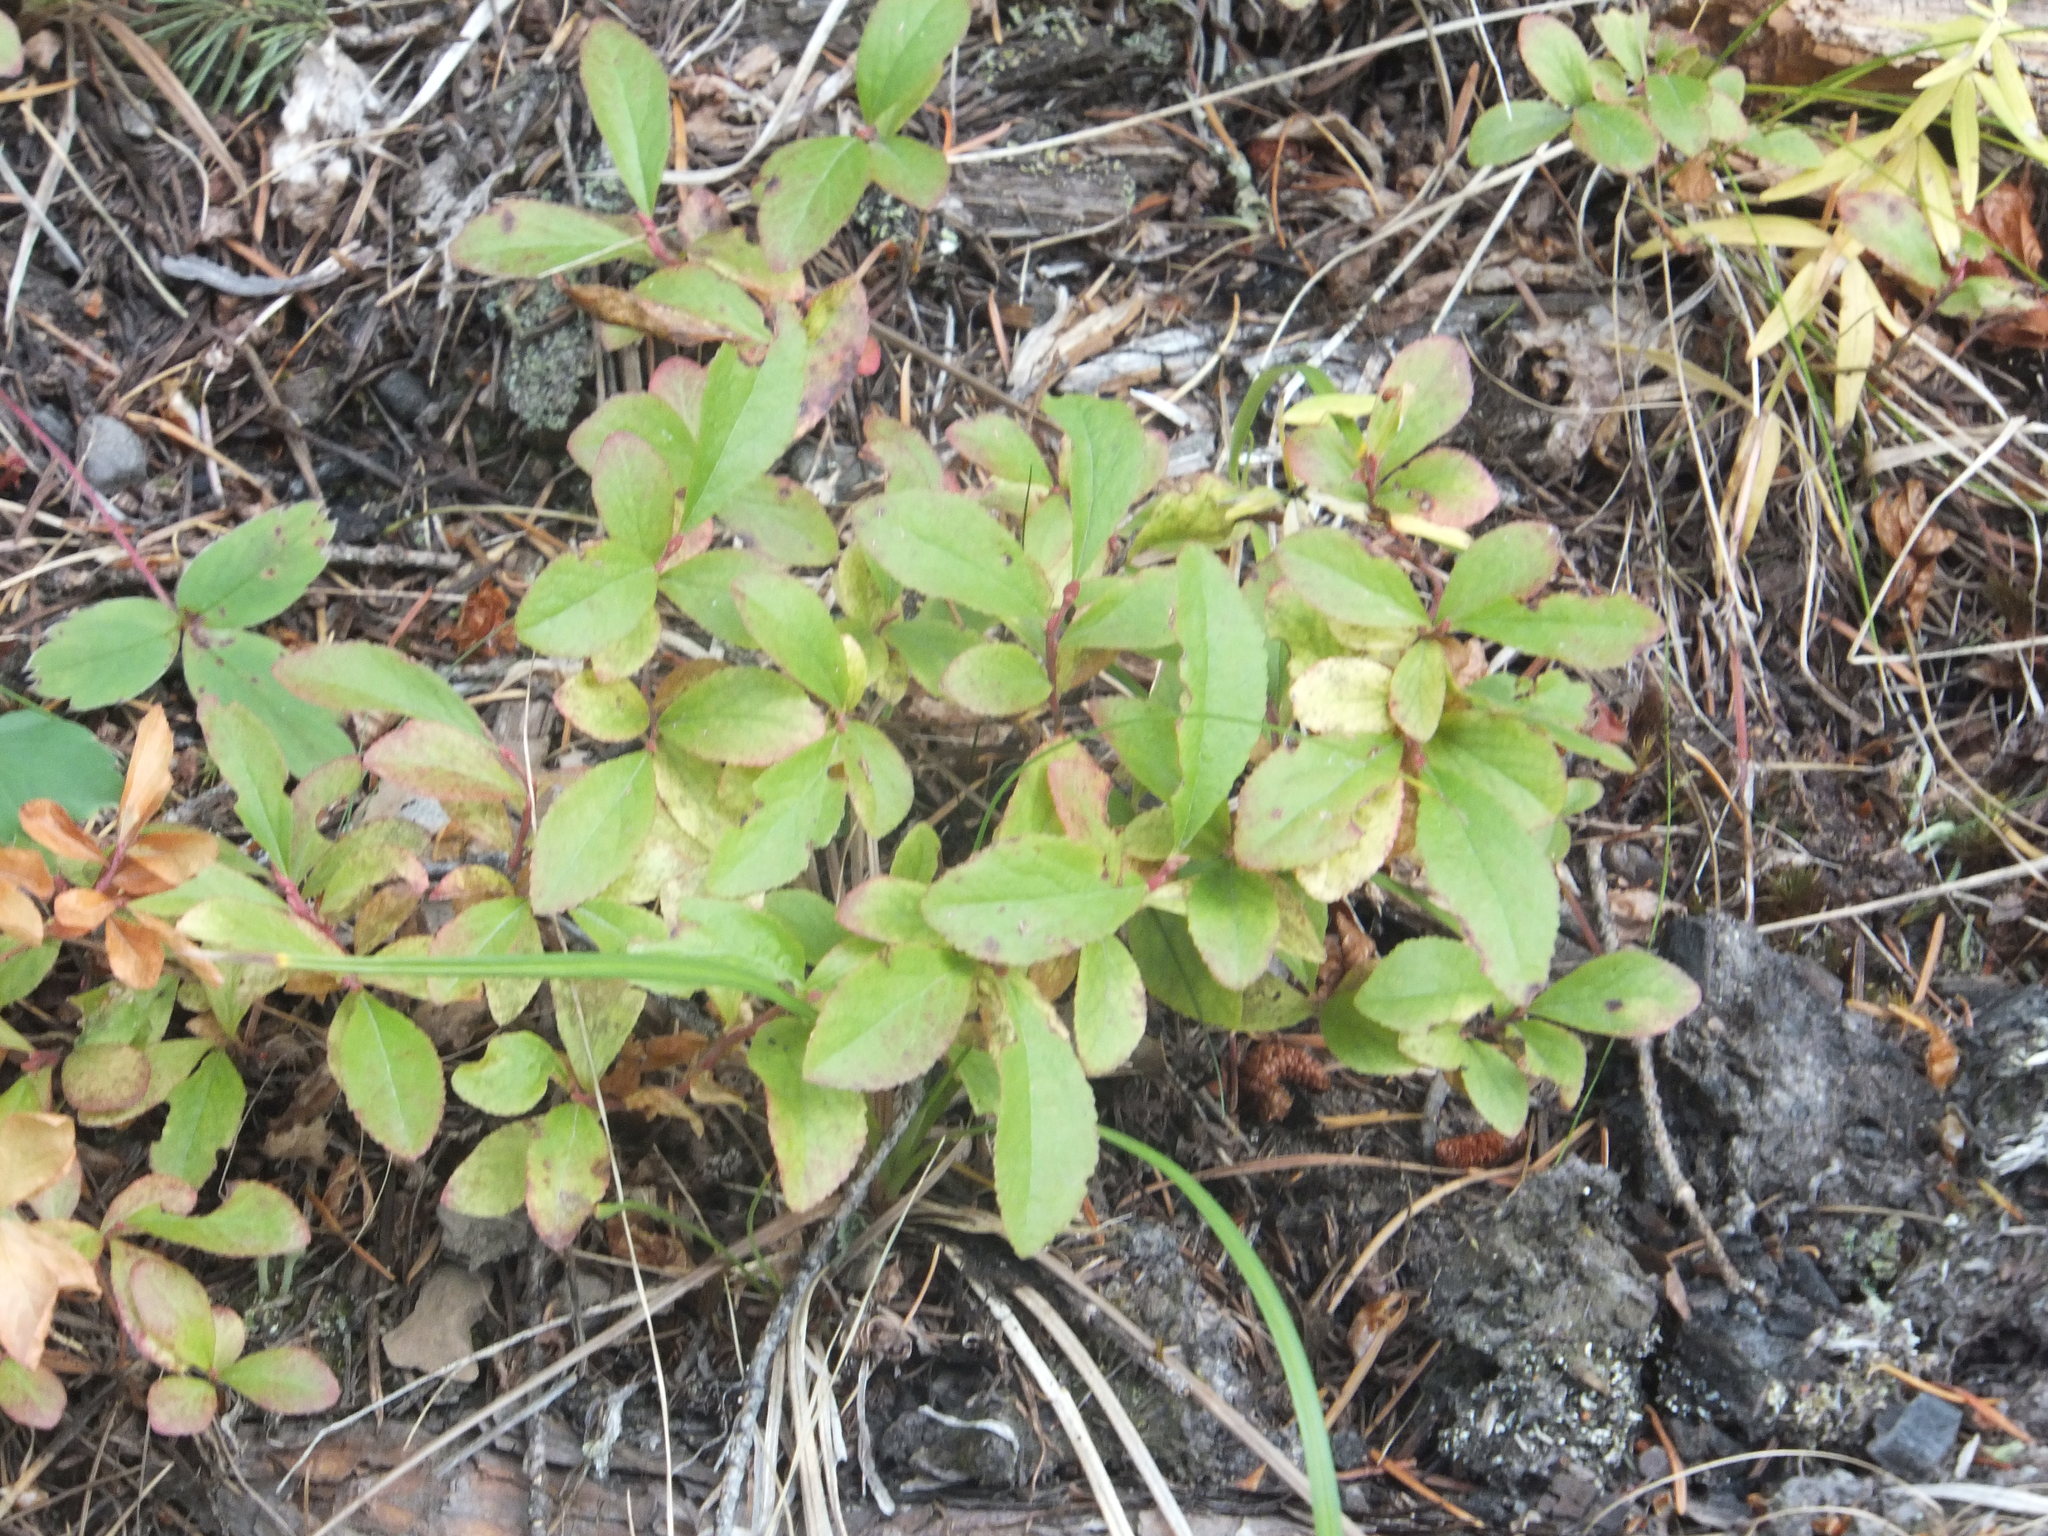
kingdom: Plantae
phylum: Tracheophyta
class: Magnoliopsida
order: Ericales
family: Ericaceae
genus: Vaccinium
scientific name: Vaccinium cespitosum
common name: Dwarf bilberry
